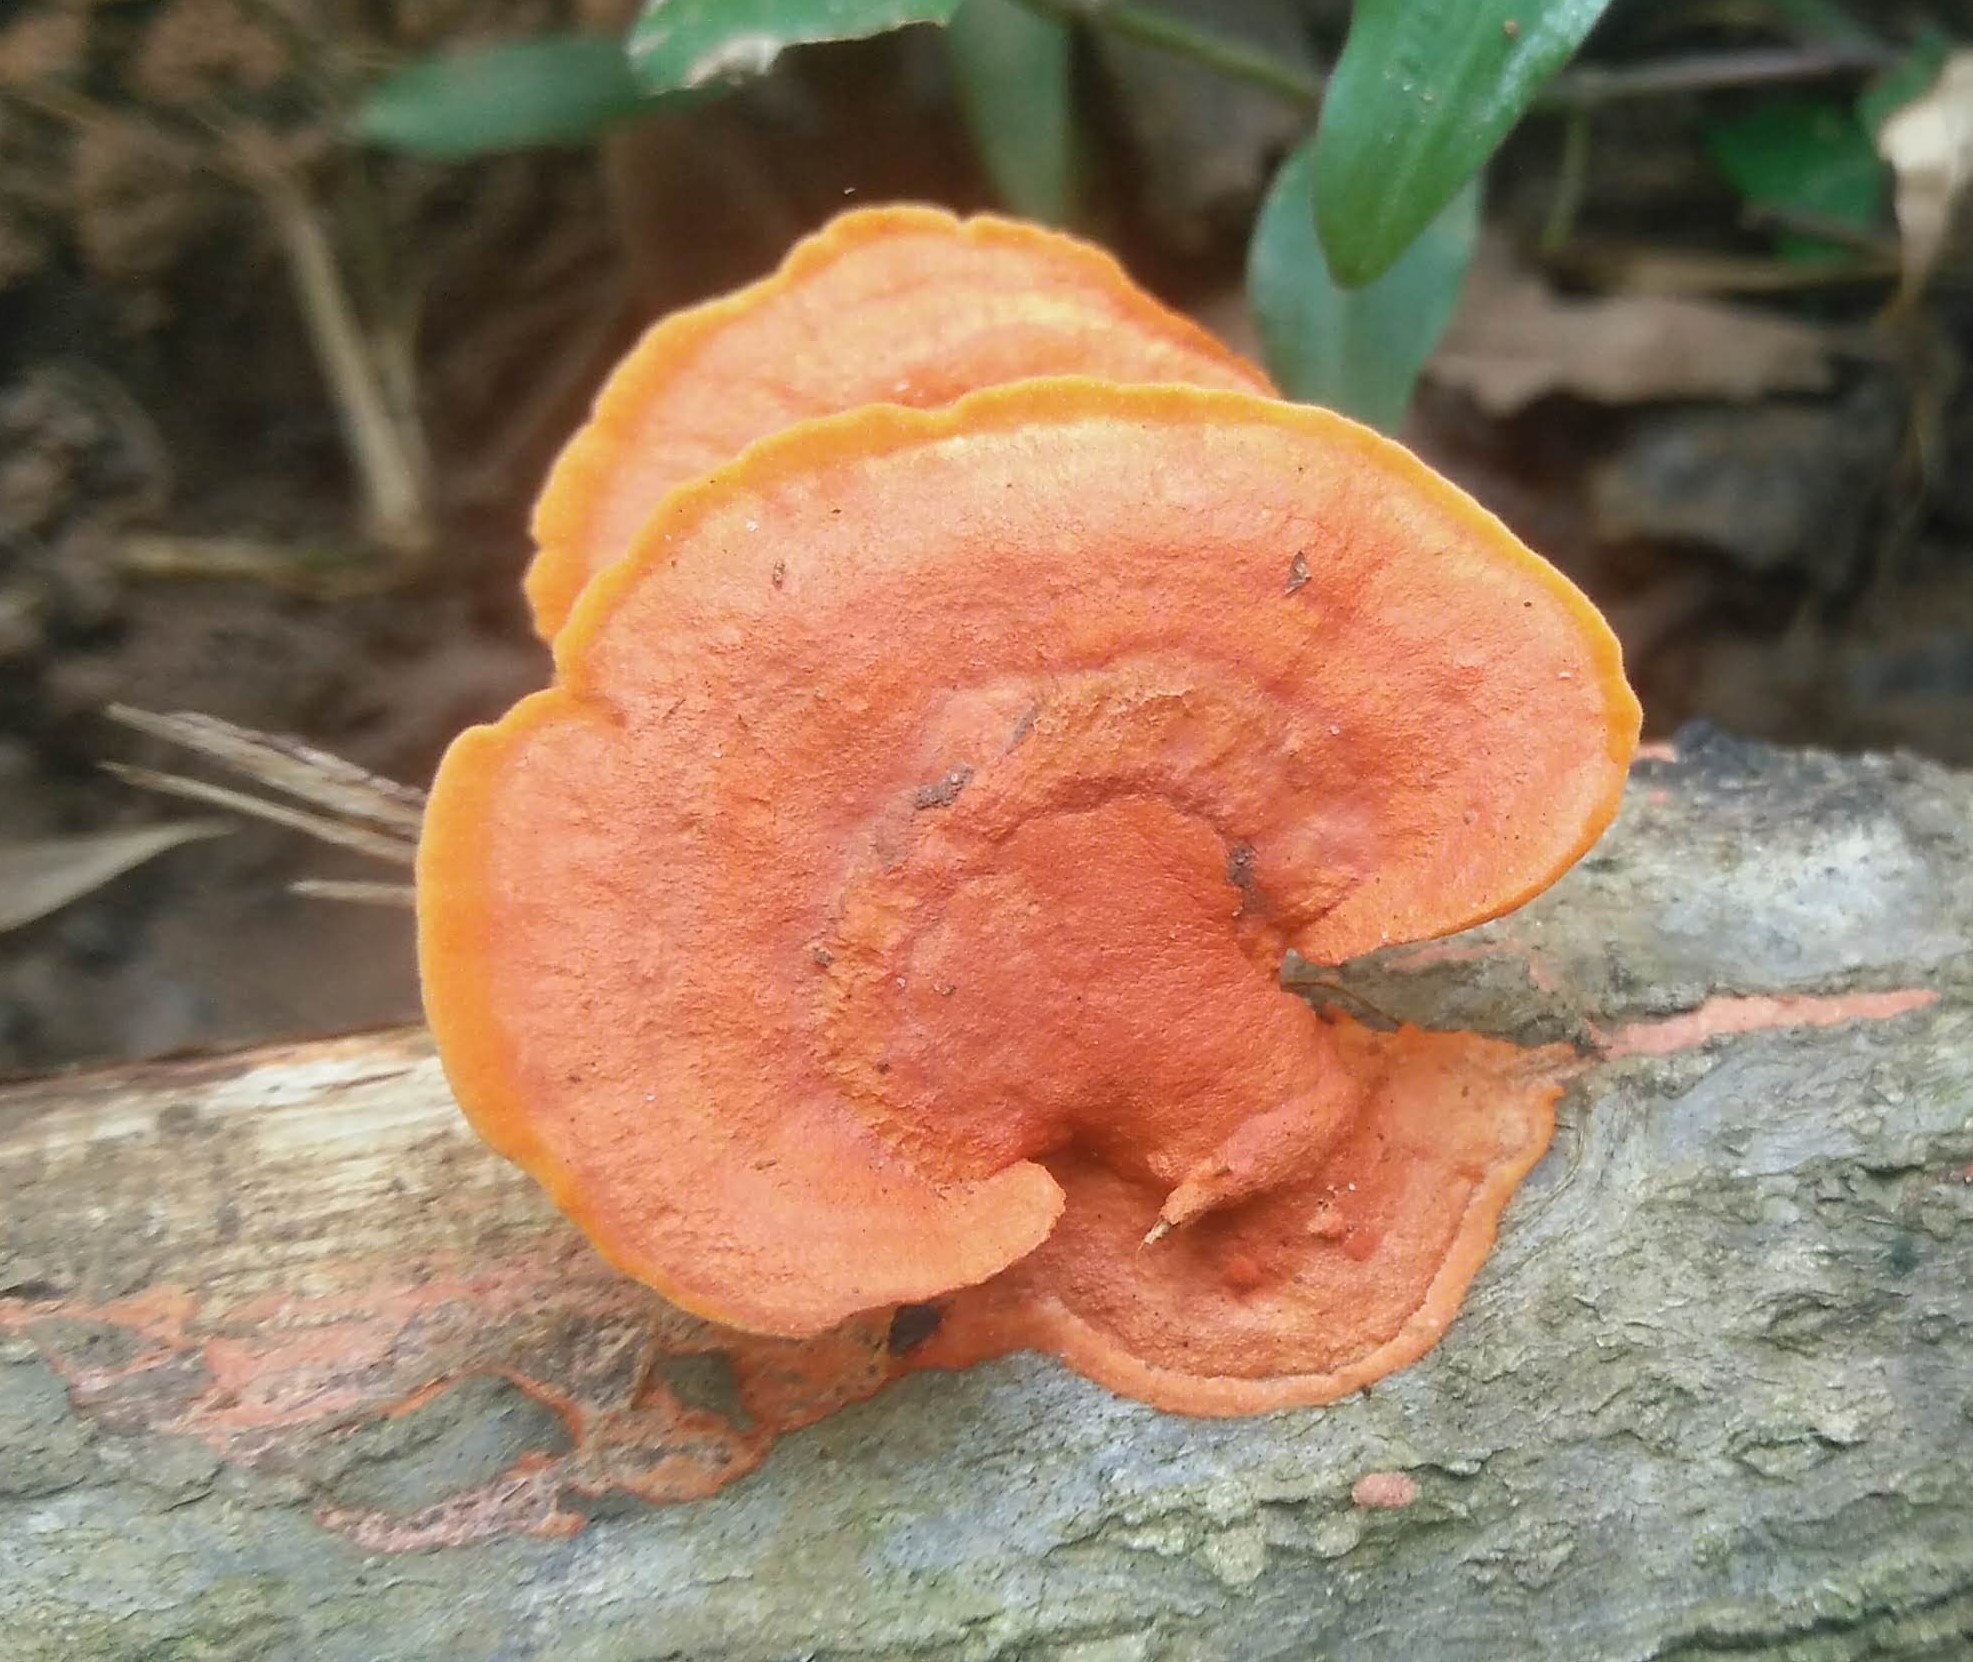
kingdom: Fungi
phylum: Basidiomycota
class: Agaricomycetes
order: Polyporales
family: Polyporaceae
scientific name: Polyporaceae
